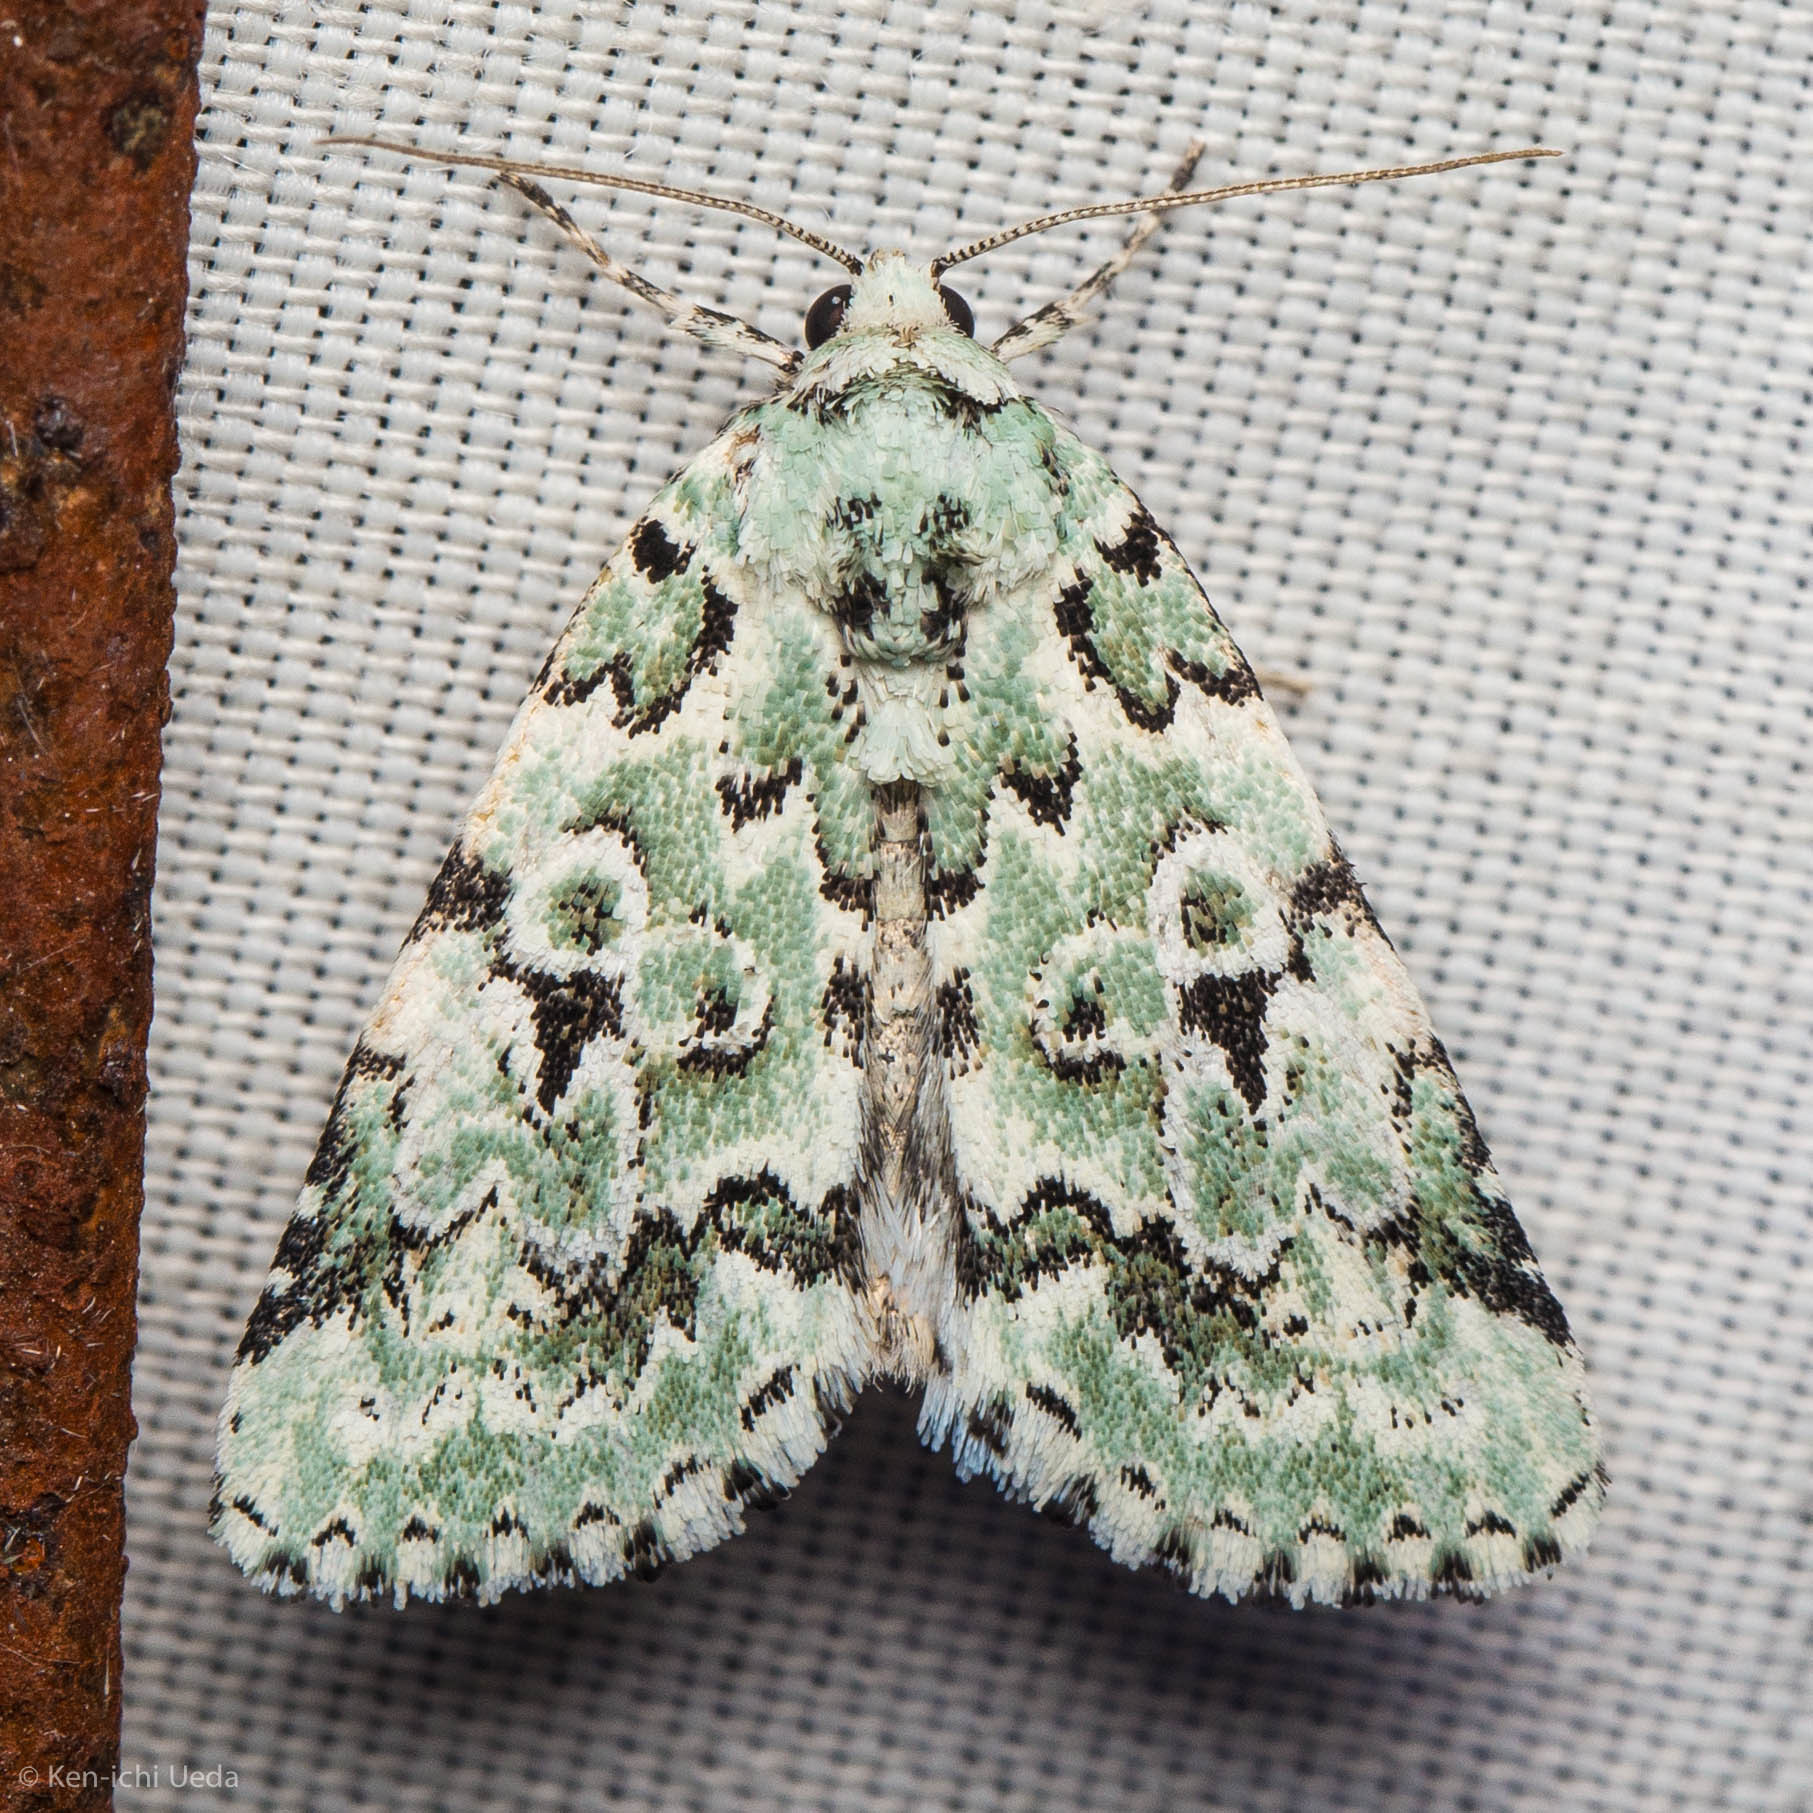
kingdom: Animalia
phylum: Arthropoda
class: Insecta
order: Lepidoptera
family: Noctuidae
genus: Bryolymnia
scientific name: Bryolymnia viridata
